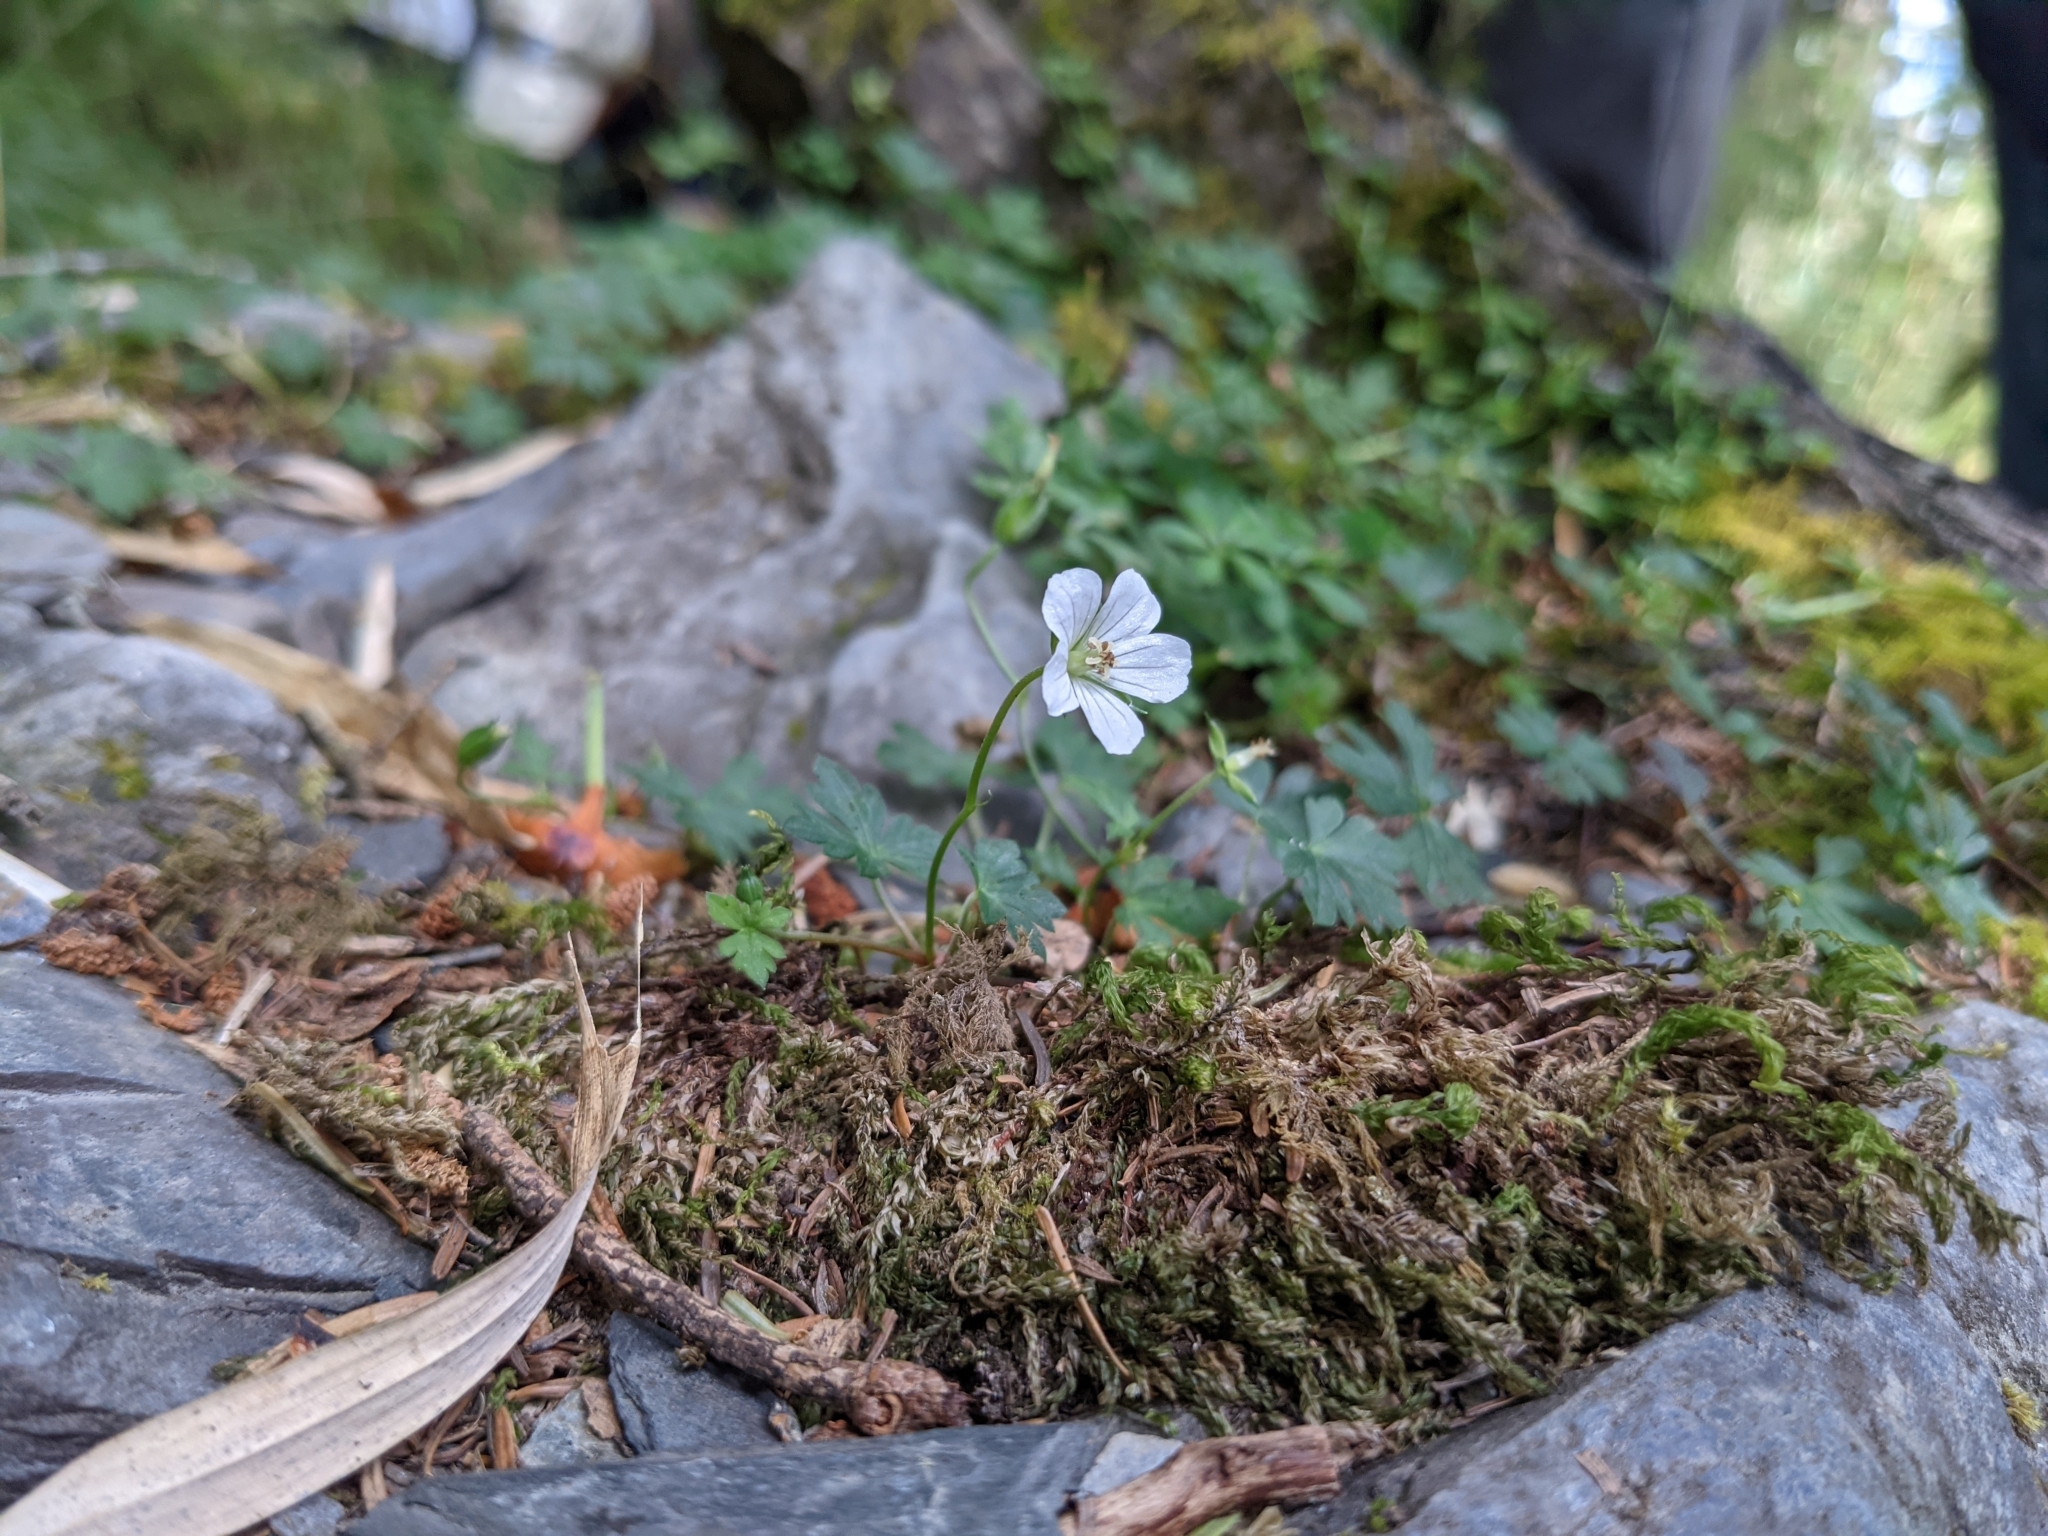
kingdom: Plantae
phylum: Tracheophyta
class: Magnoliopsida
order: Geraniales
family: Geraniaceae
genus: Geranium
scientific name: Geranium suzukii
